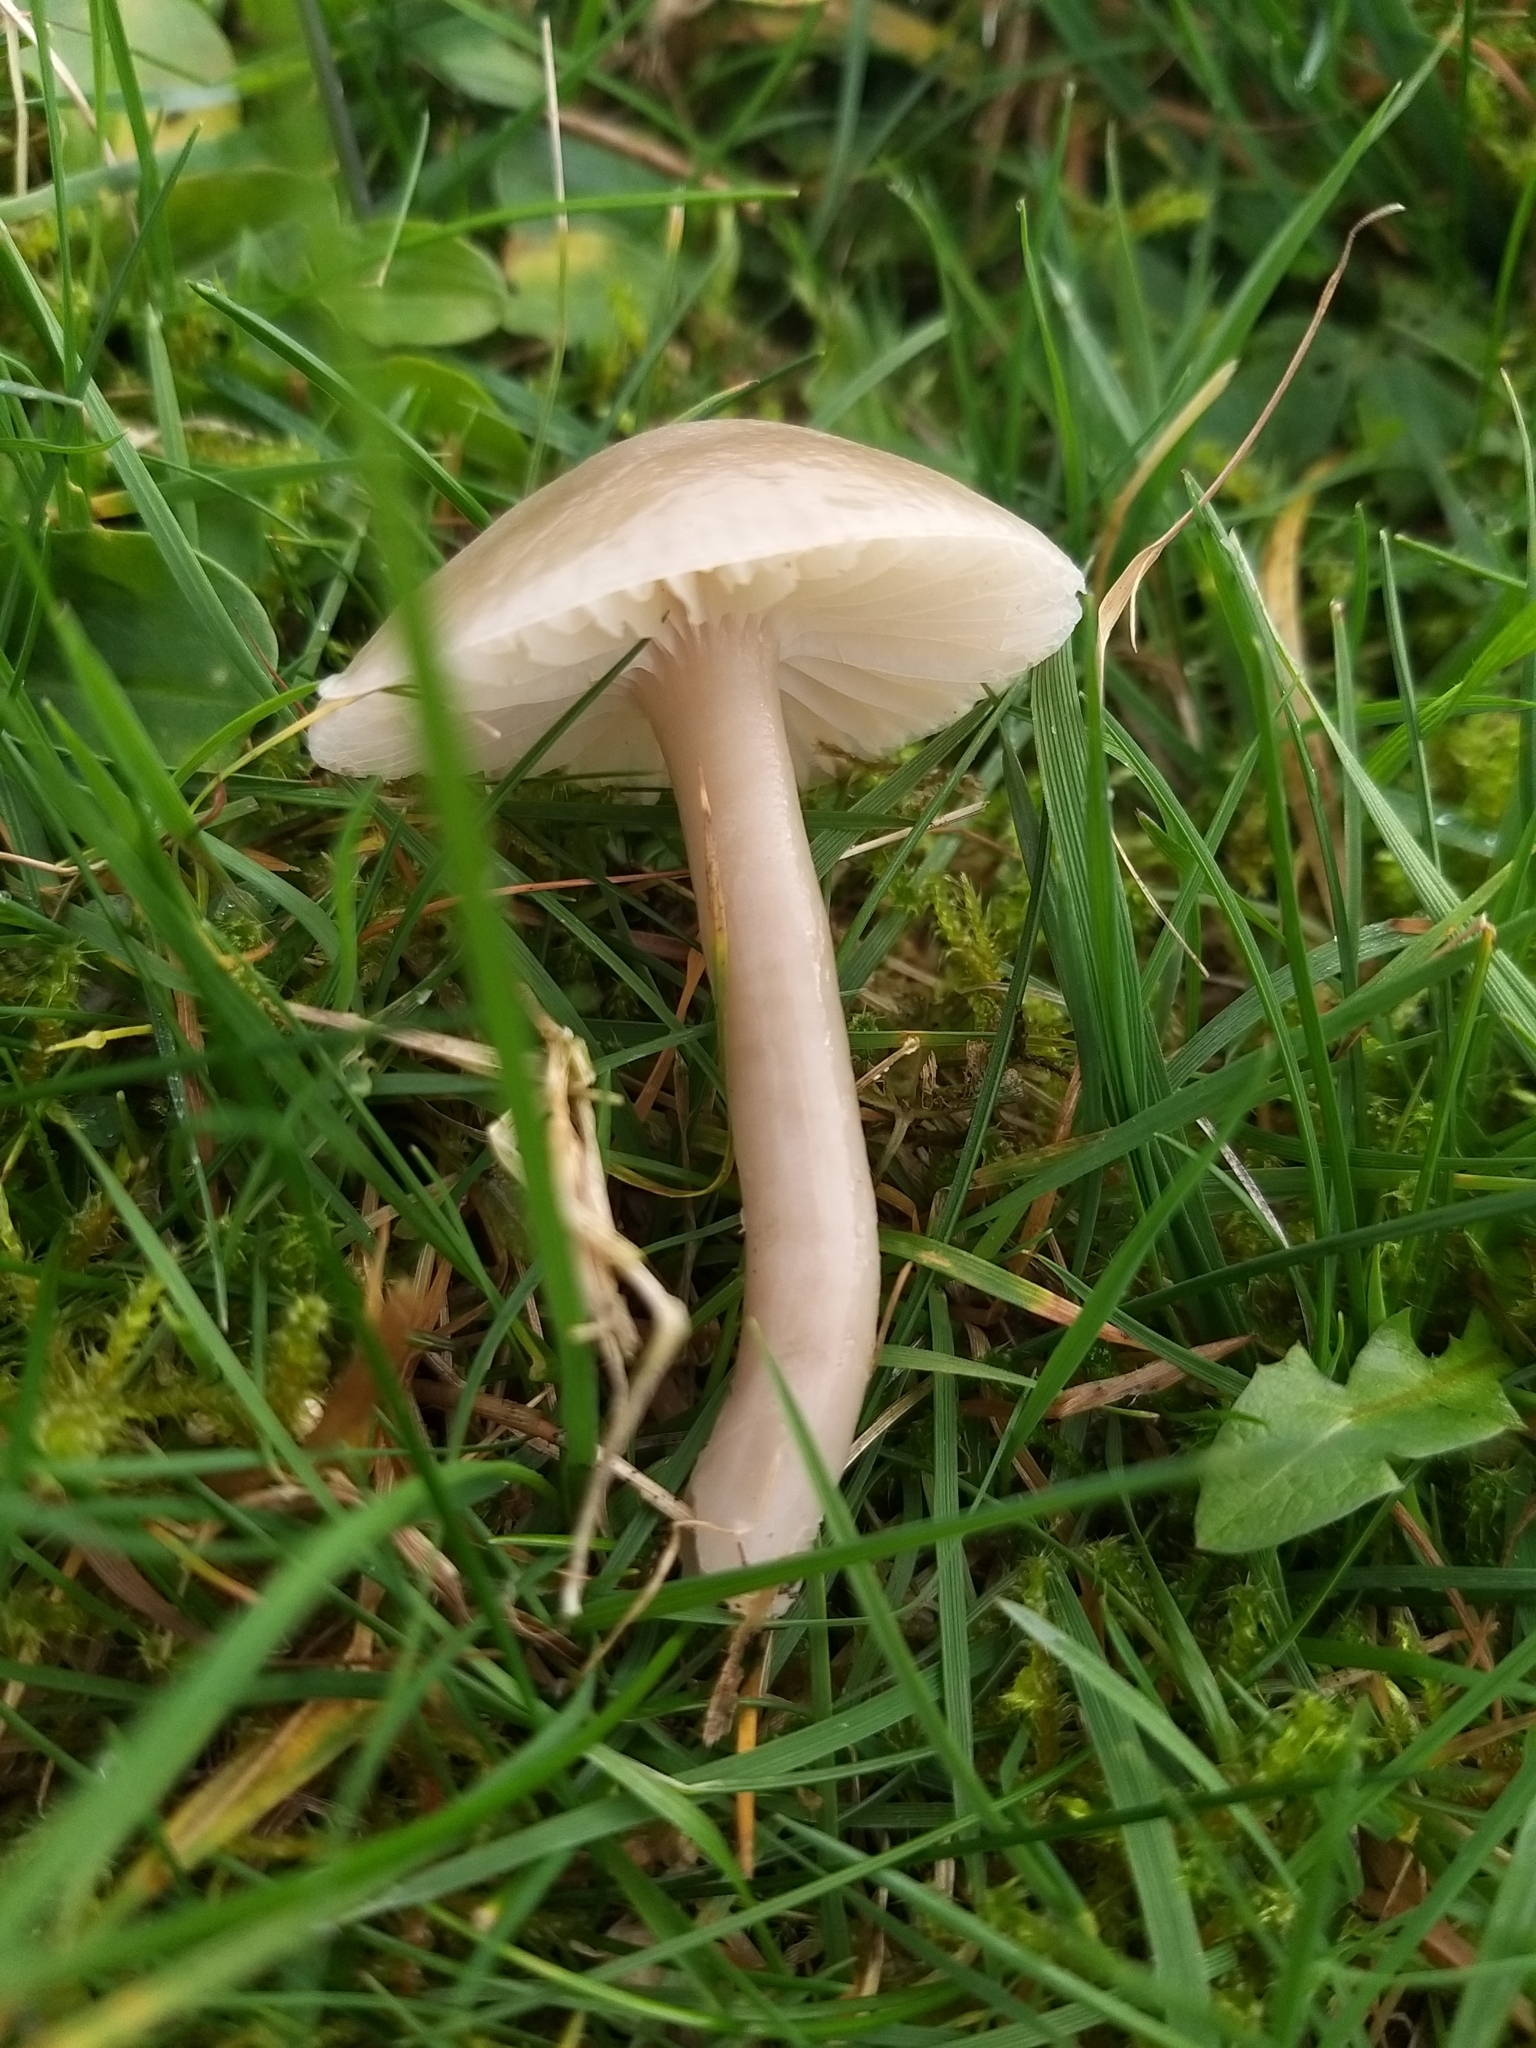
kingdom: Fungi
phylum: Basidiomycota
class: Agaricomycetes
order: Agaricales
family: Hygrophoraceae
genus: Gliophorus
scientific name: Gliophorus irrigatus
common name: Slimy waxcap
